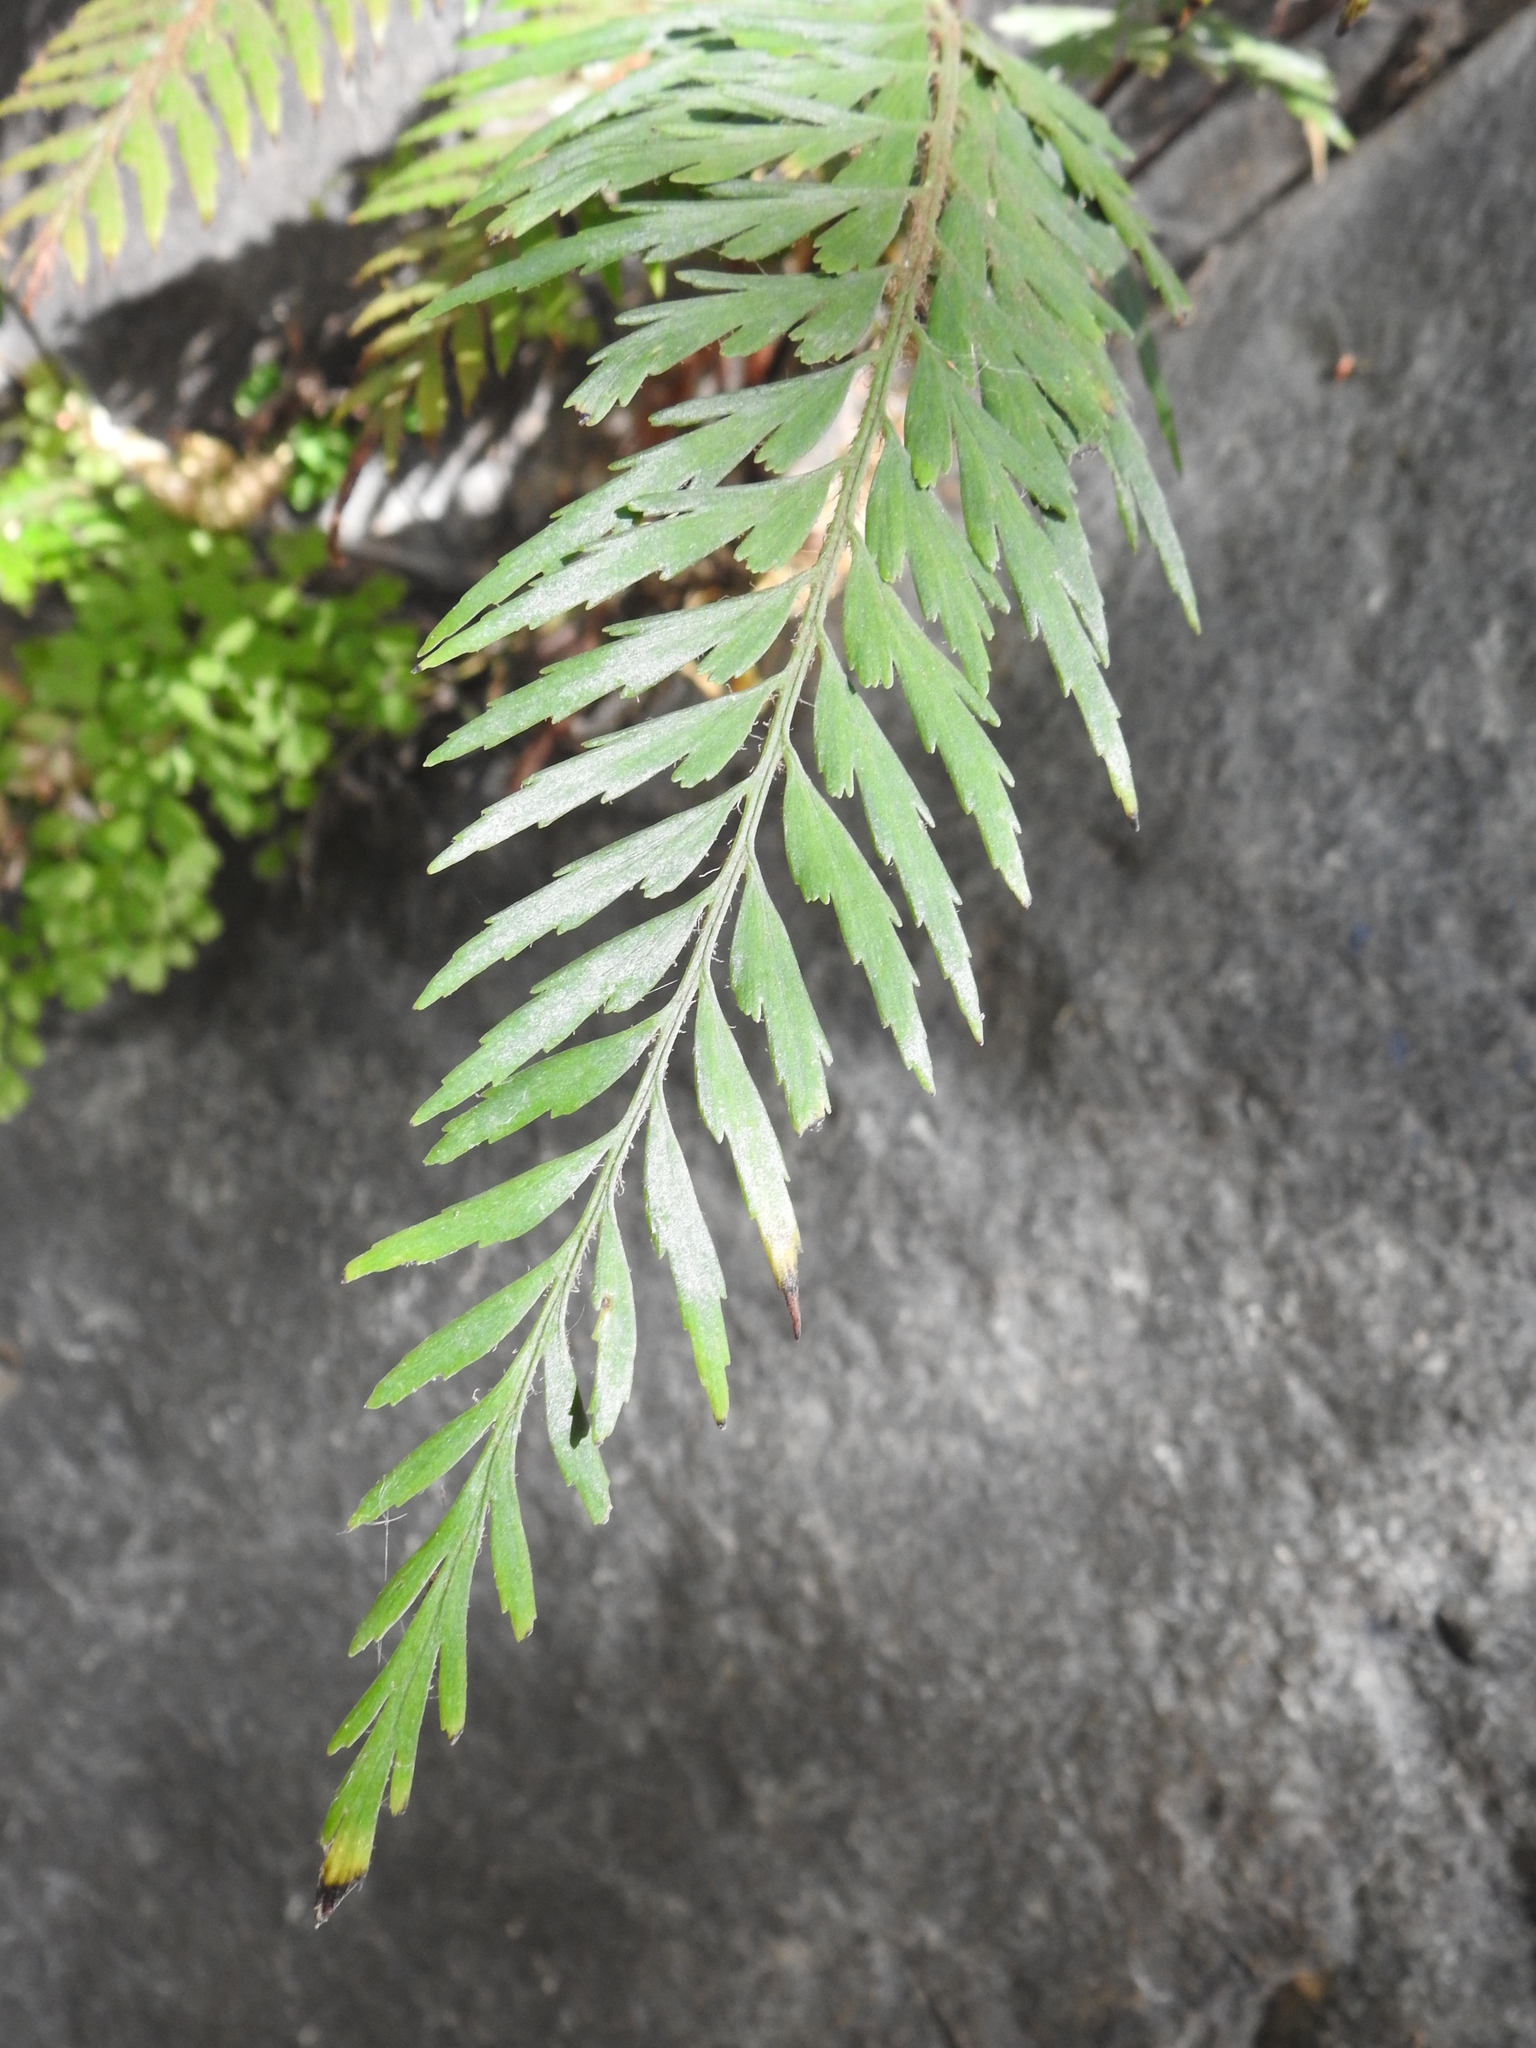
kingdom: Plantae
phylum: Tracheophyta
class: Polypodiopsida
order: Polypodiales
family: Aspleniaceae
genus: Asplenium
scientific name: Asplenium aethiopicum
